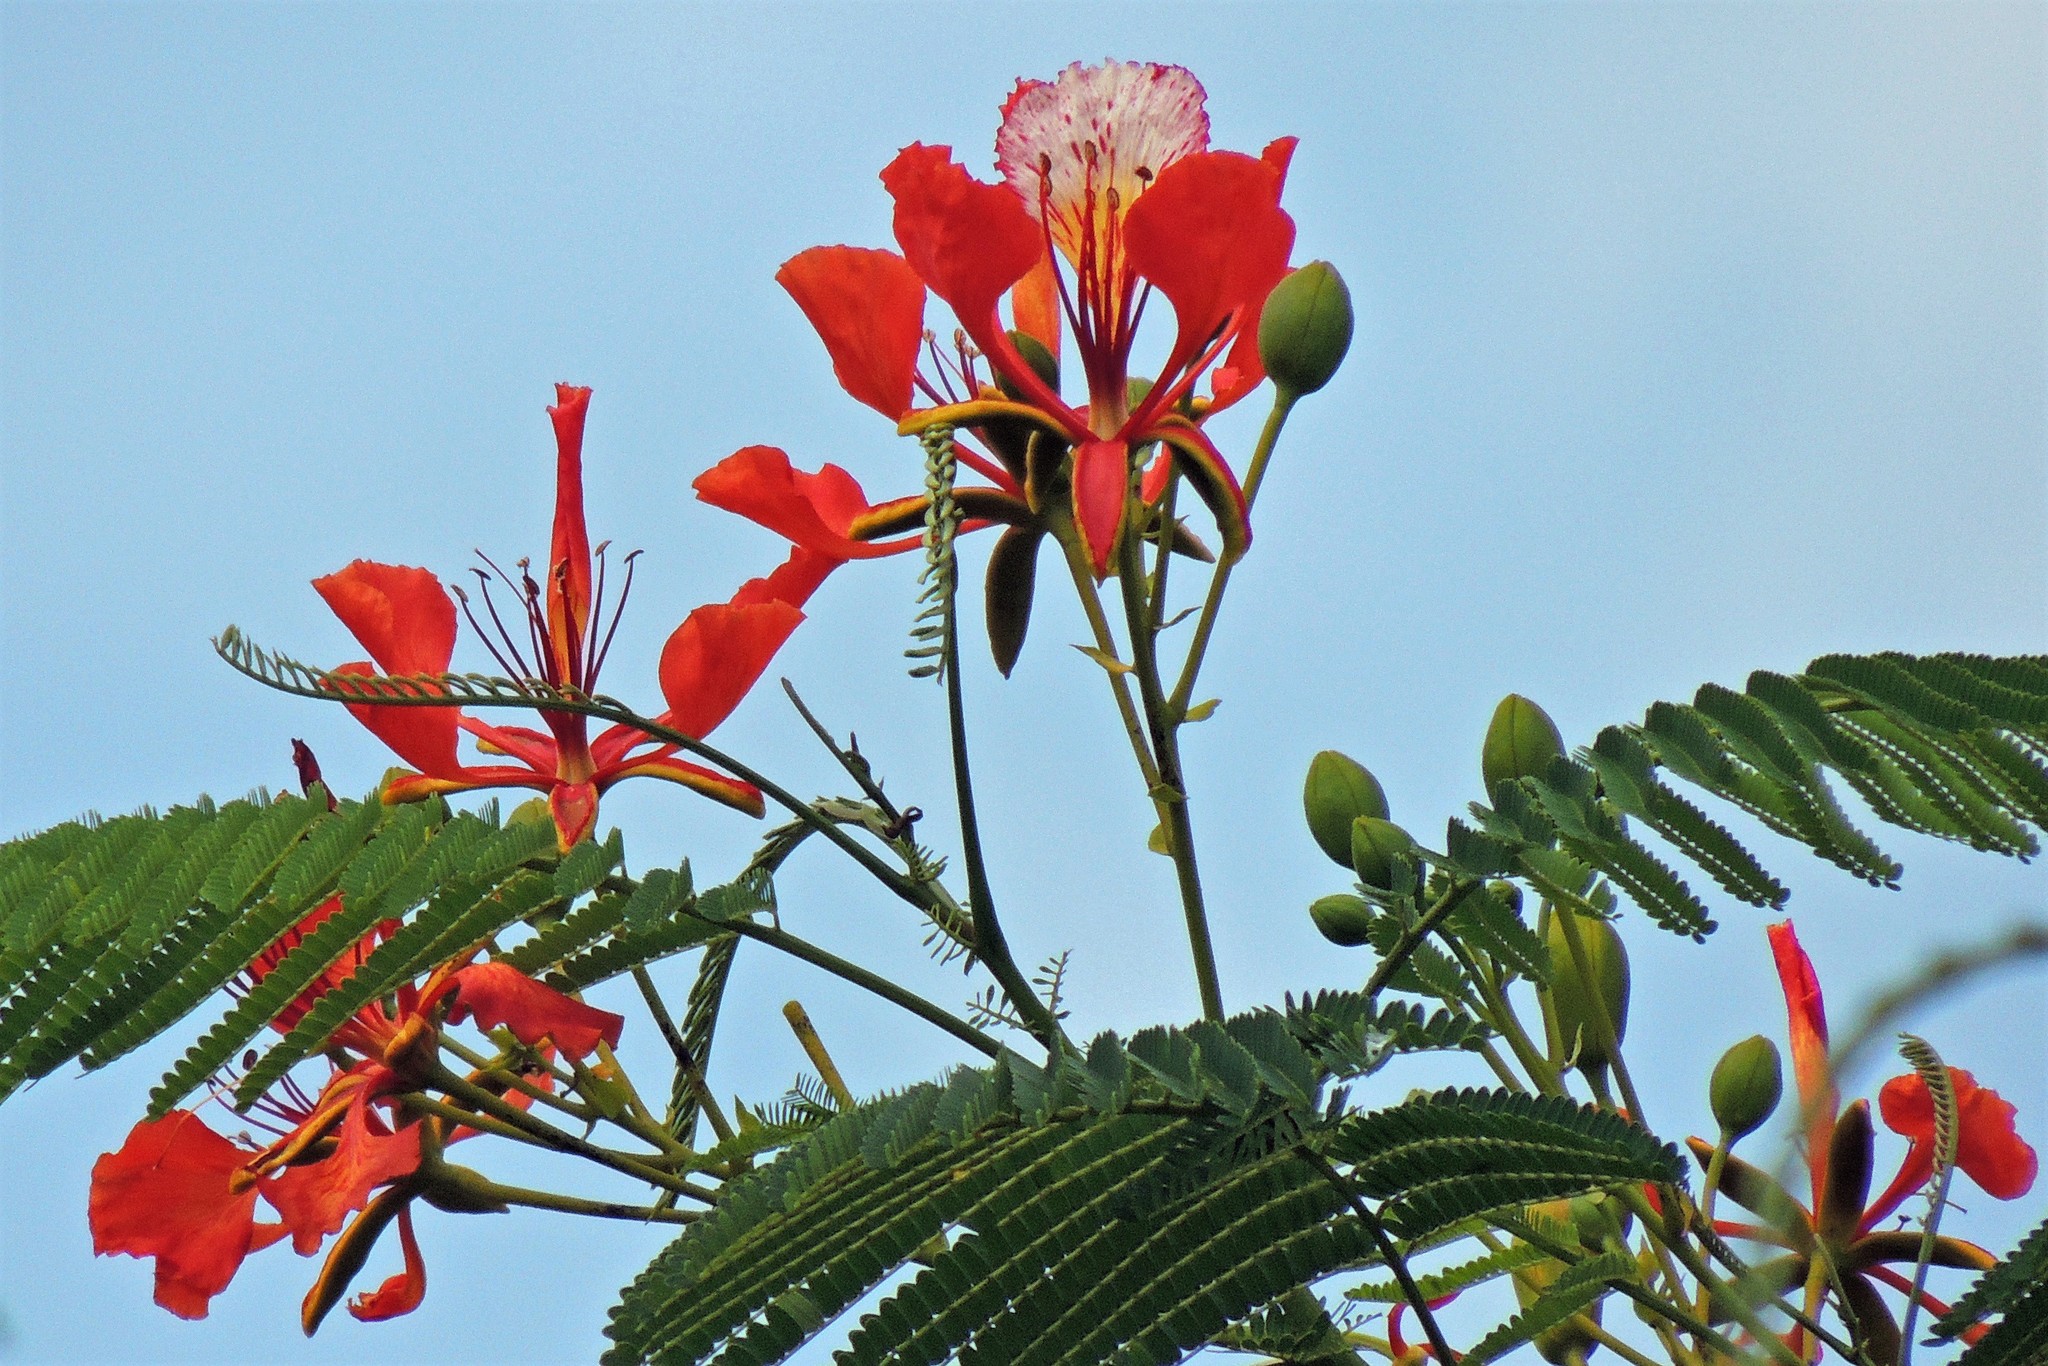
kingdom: Plantae
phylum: Tracheophyta
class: Magnoliopsida
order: Fabales
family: Fabaceae
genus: Delonix
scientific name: Delonix regia
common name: Royal poinciana
